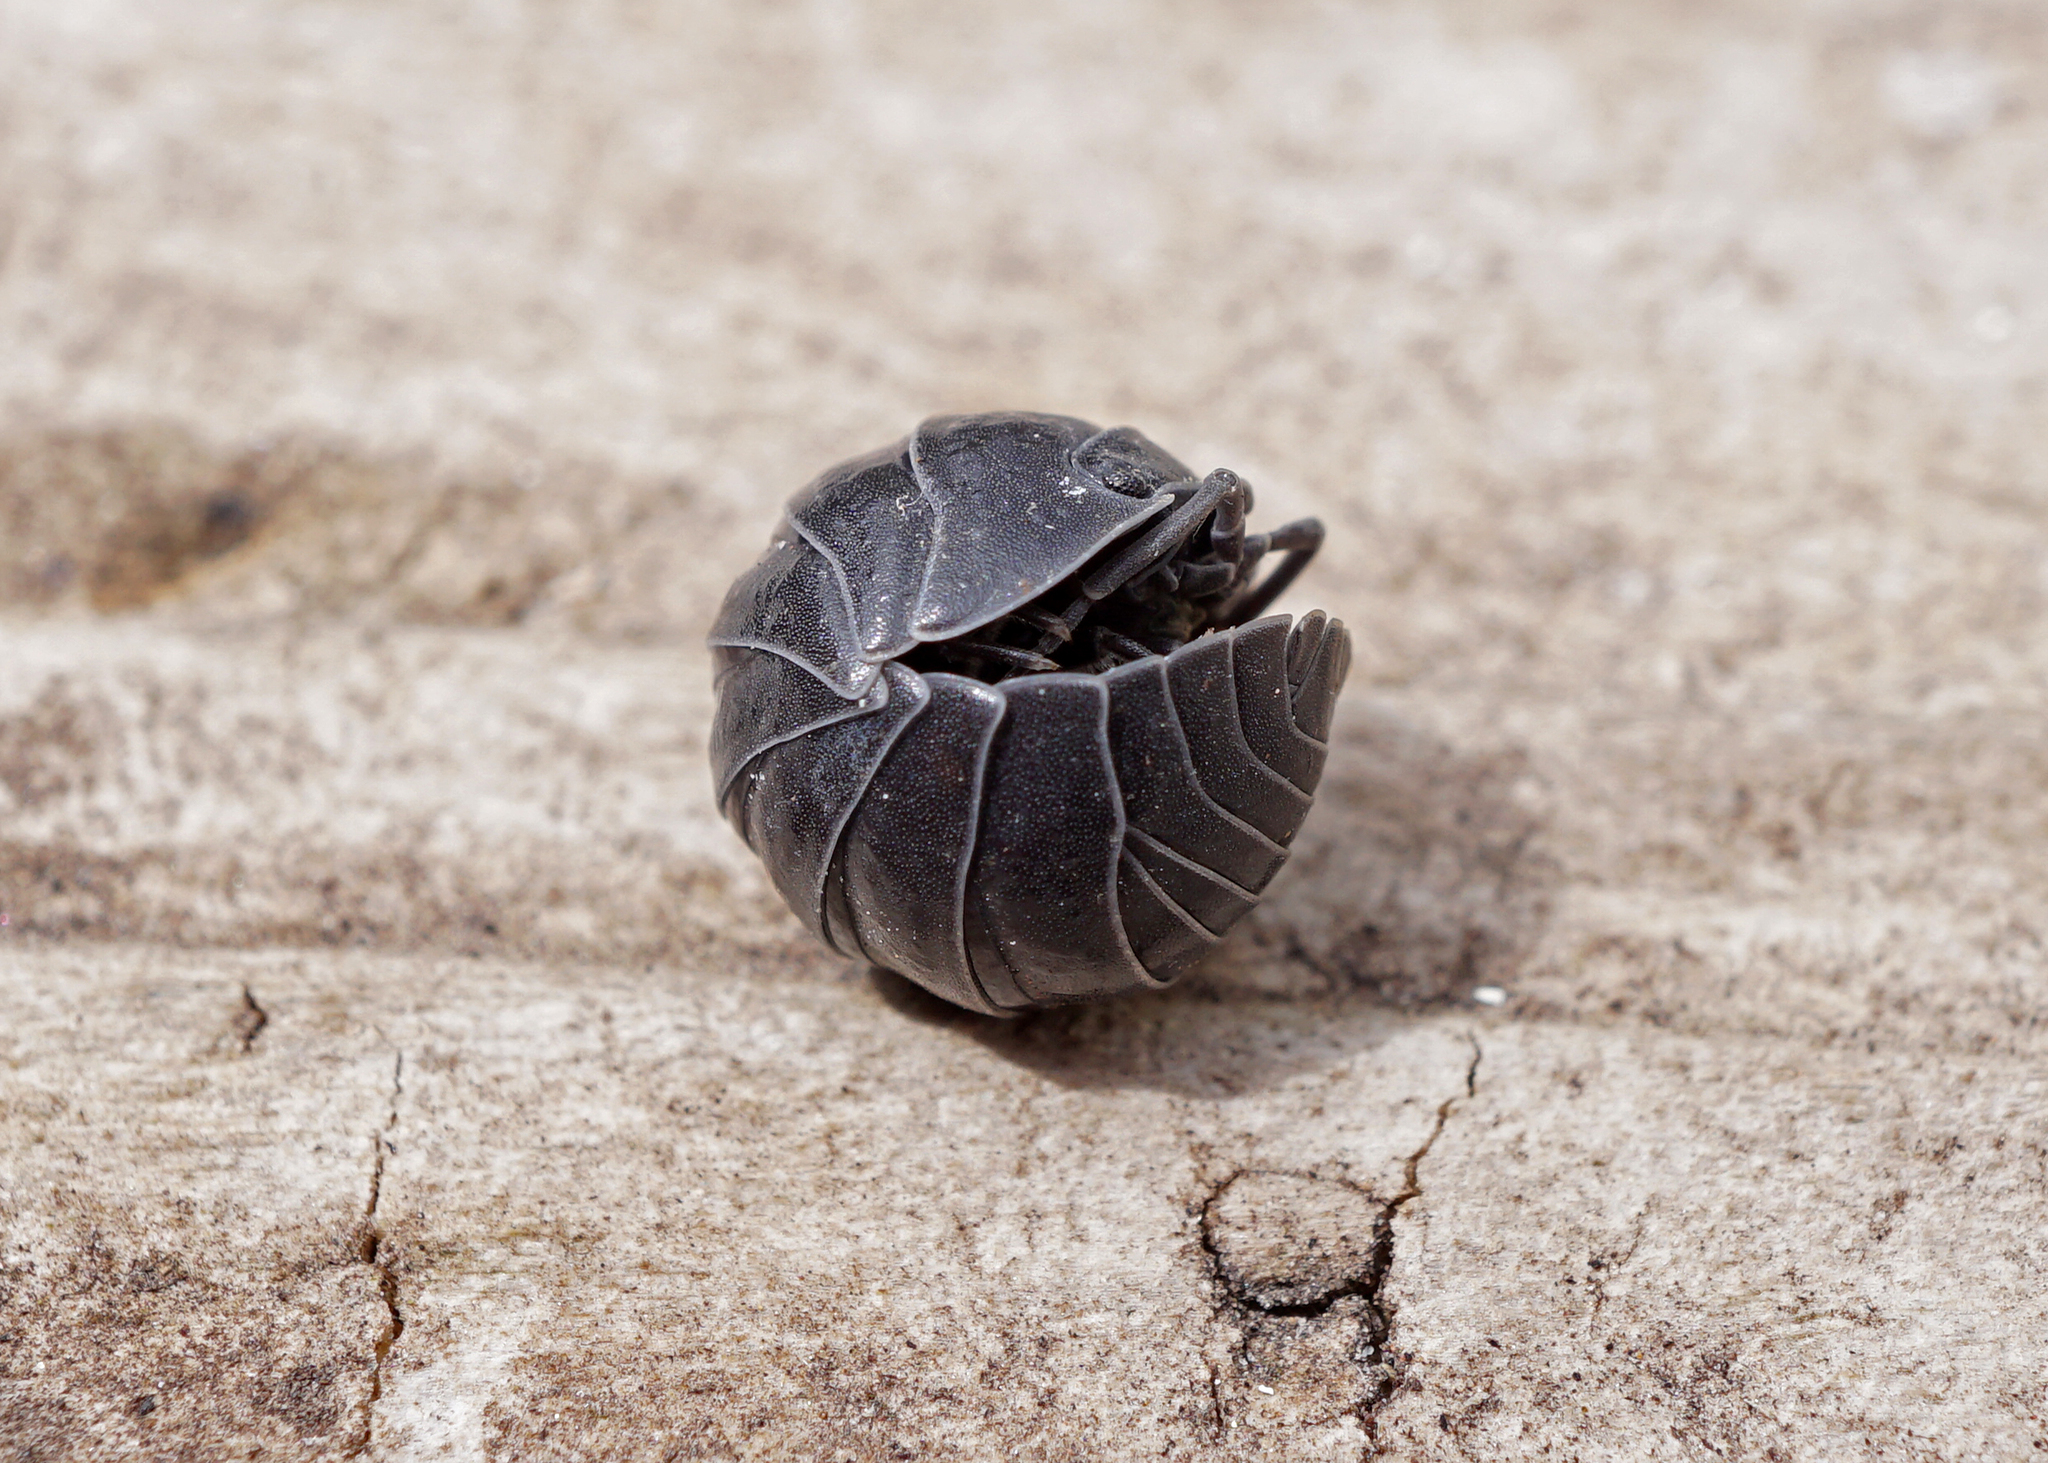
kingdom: Animalia
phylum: Arthropoda
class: Malacostraca
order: Isopoda
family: Armadillidiidae
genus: Armadillidium
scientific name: Armadillidium vulgare
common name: Common pill woodlouse
